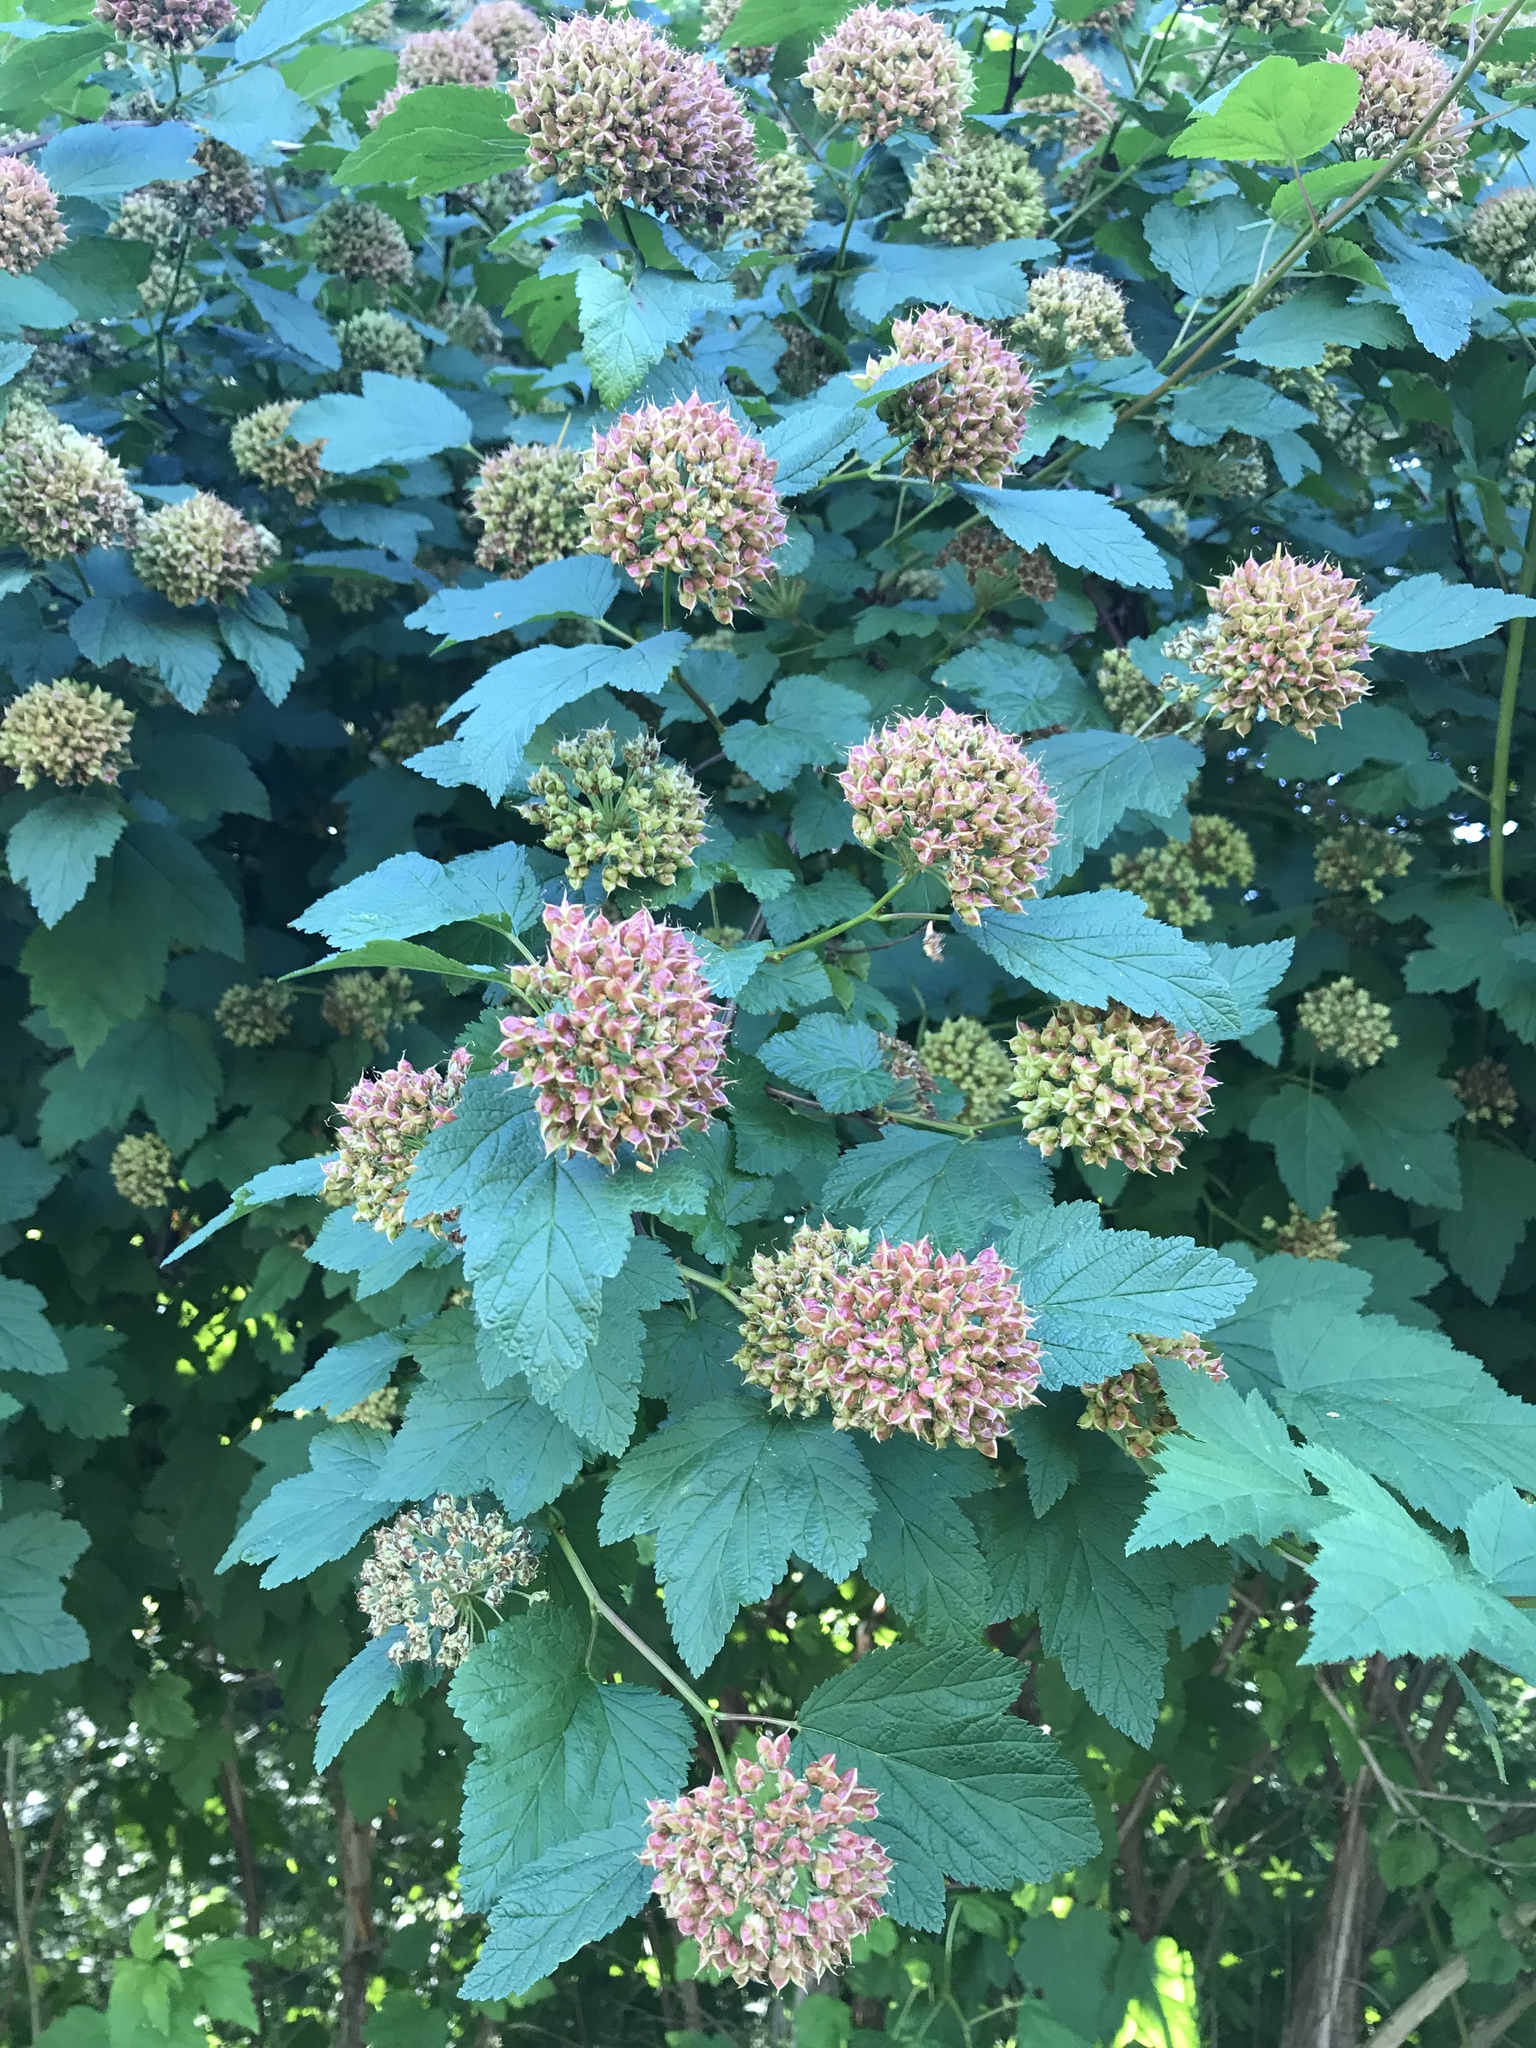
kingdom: Plantae
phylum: Tracheophyta
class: Magnoliopsida
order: Rosales
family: Rosaceae
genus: Physocarpus
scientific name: Physocarpus capitatus
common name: Pacific ninebark
